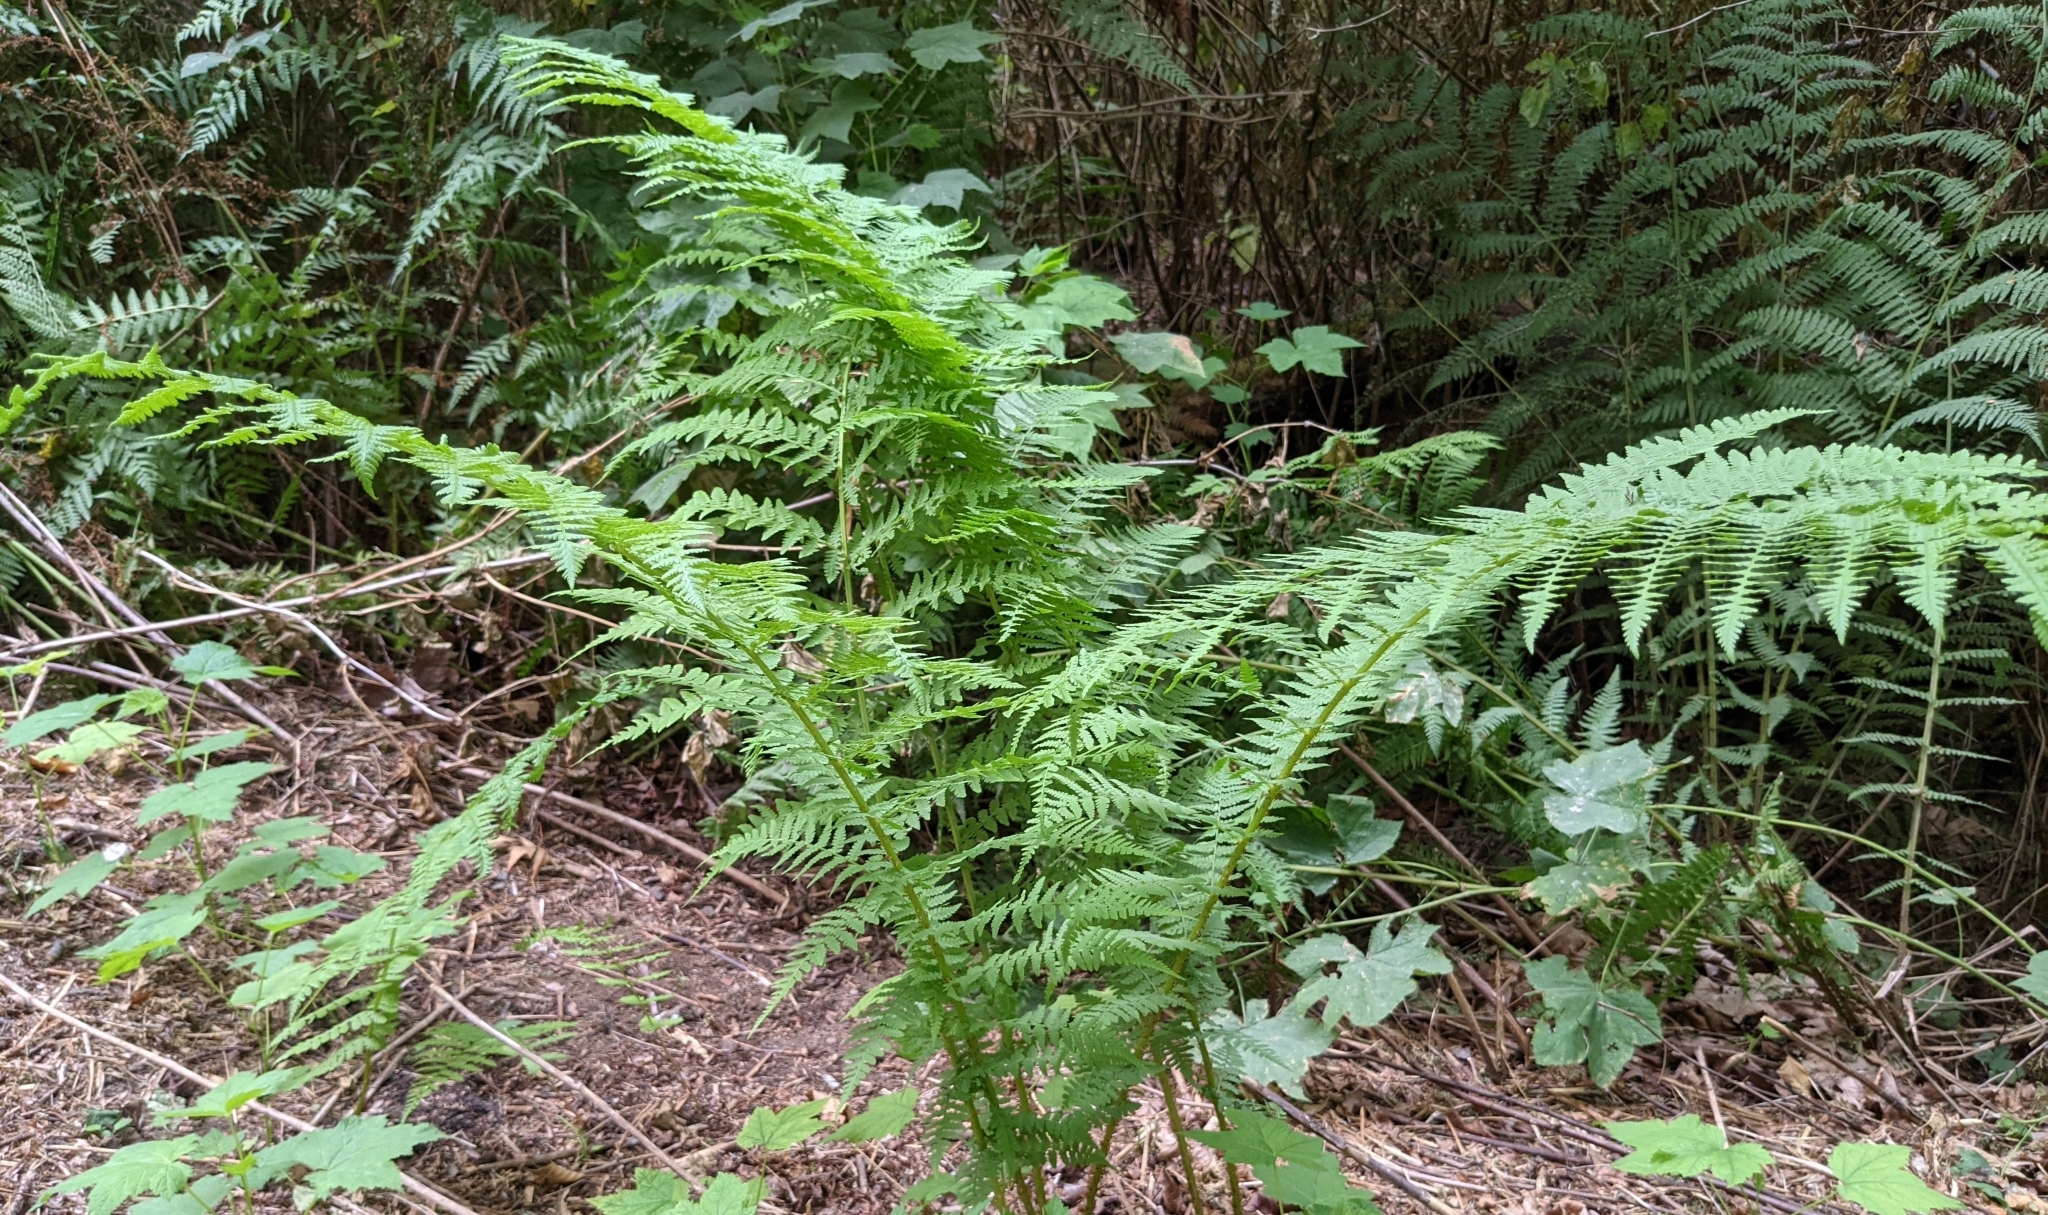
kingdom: Plantae
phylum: Tracheophyta
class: Polypodiopsida
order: Polypodiales
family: Athyriaceae
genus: Athyrium
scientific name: Athyrium filix-femina
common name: Lady fern
